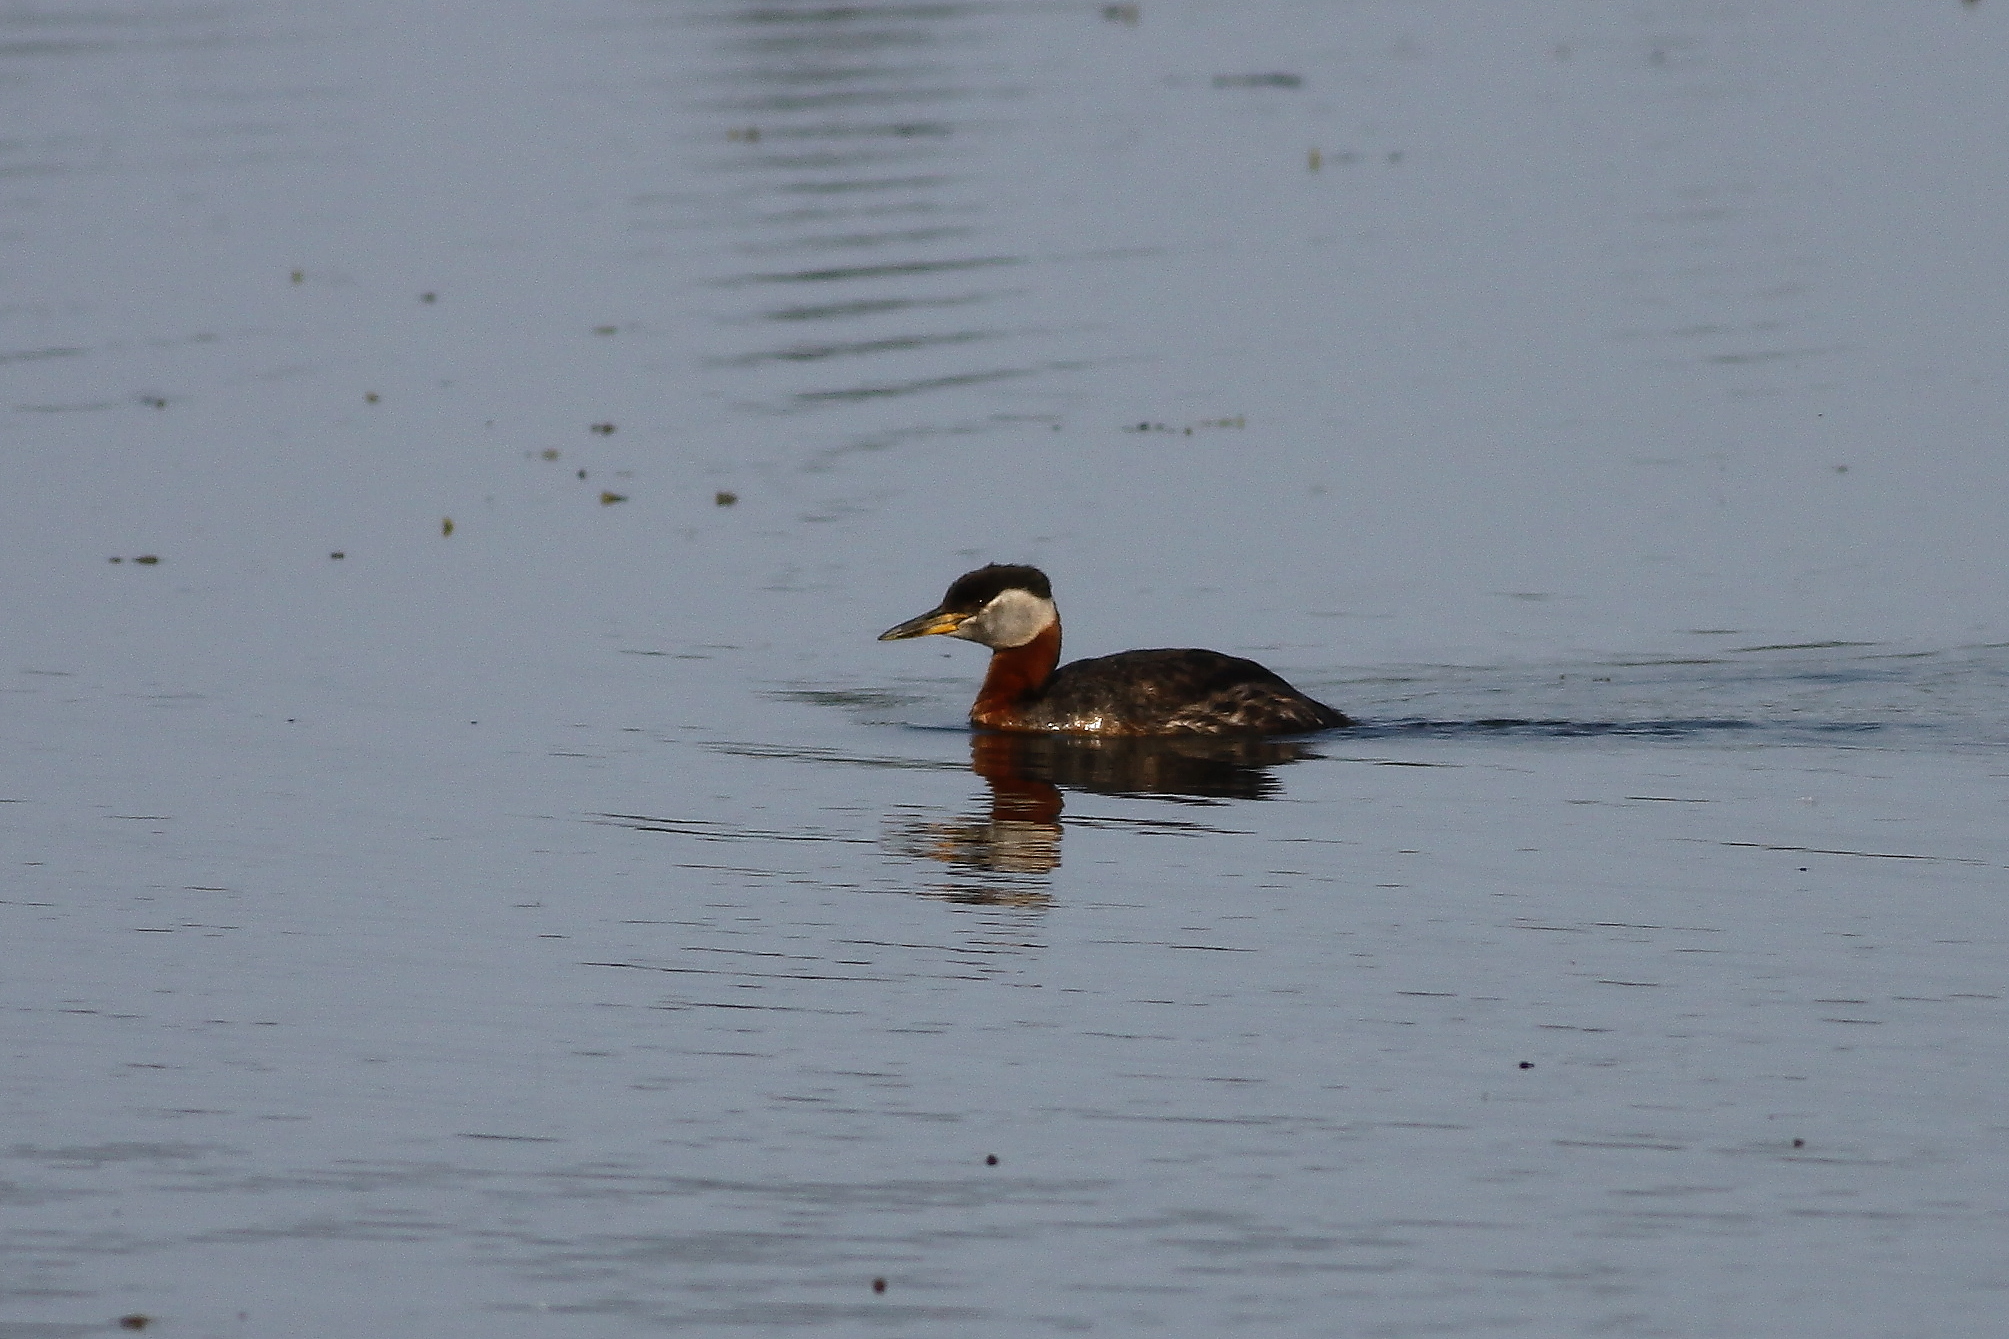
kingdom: Animalia
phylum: Chordata
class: Aves
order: Podicipediformes
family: Podicipedidae
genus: Podiceps
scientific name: Podiceps grisegena
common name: Red-necked grebe
